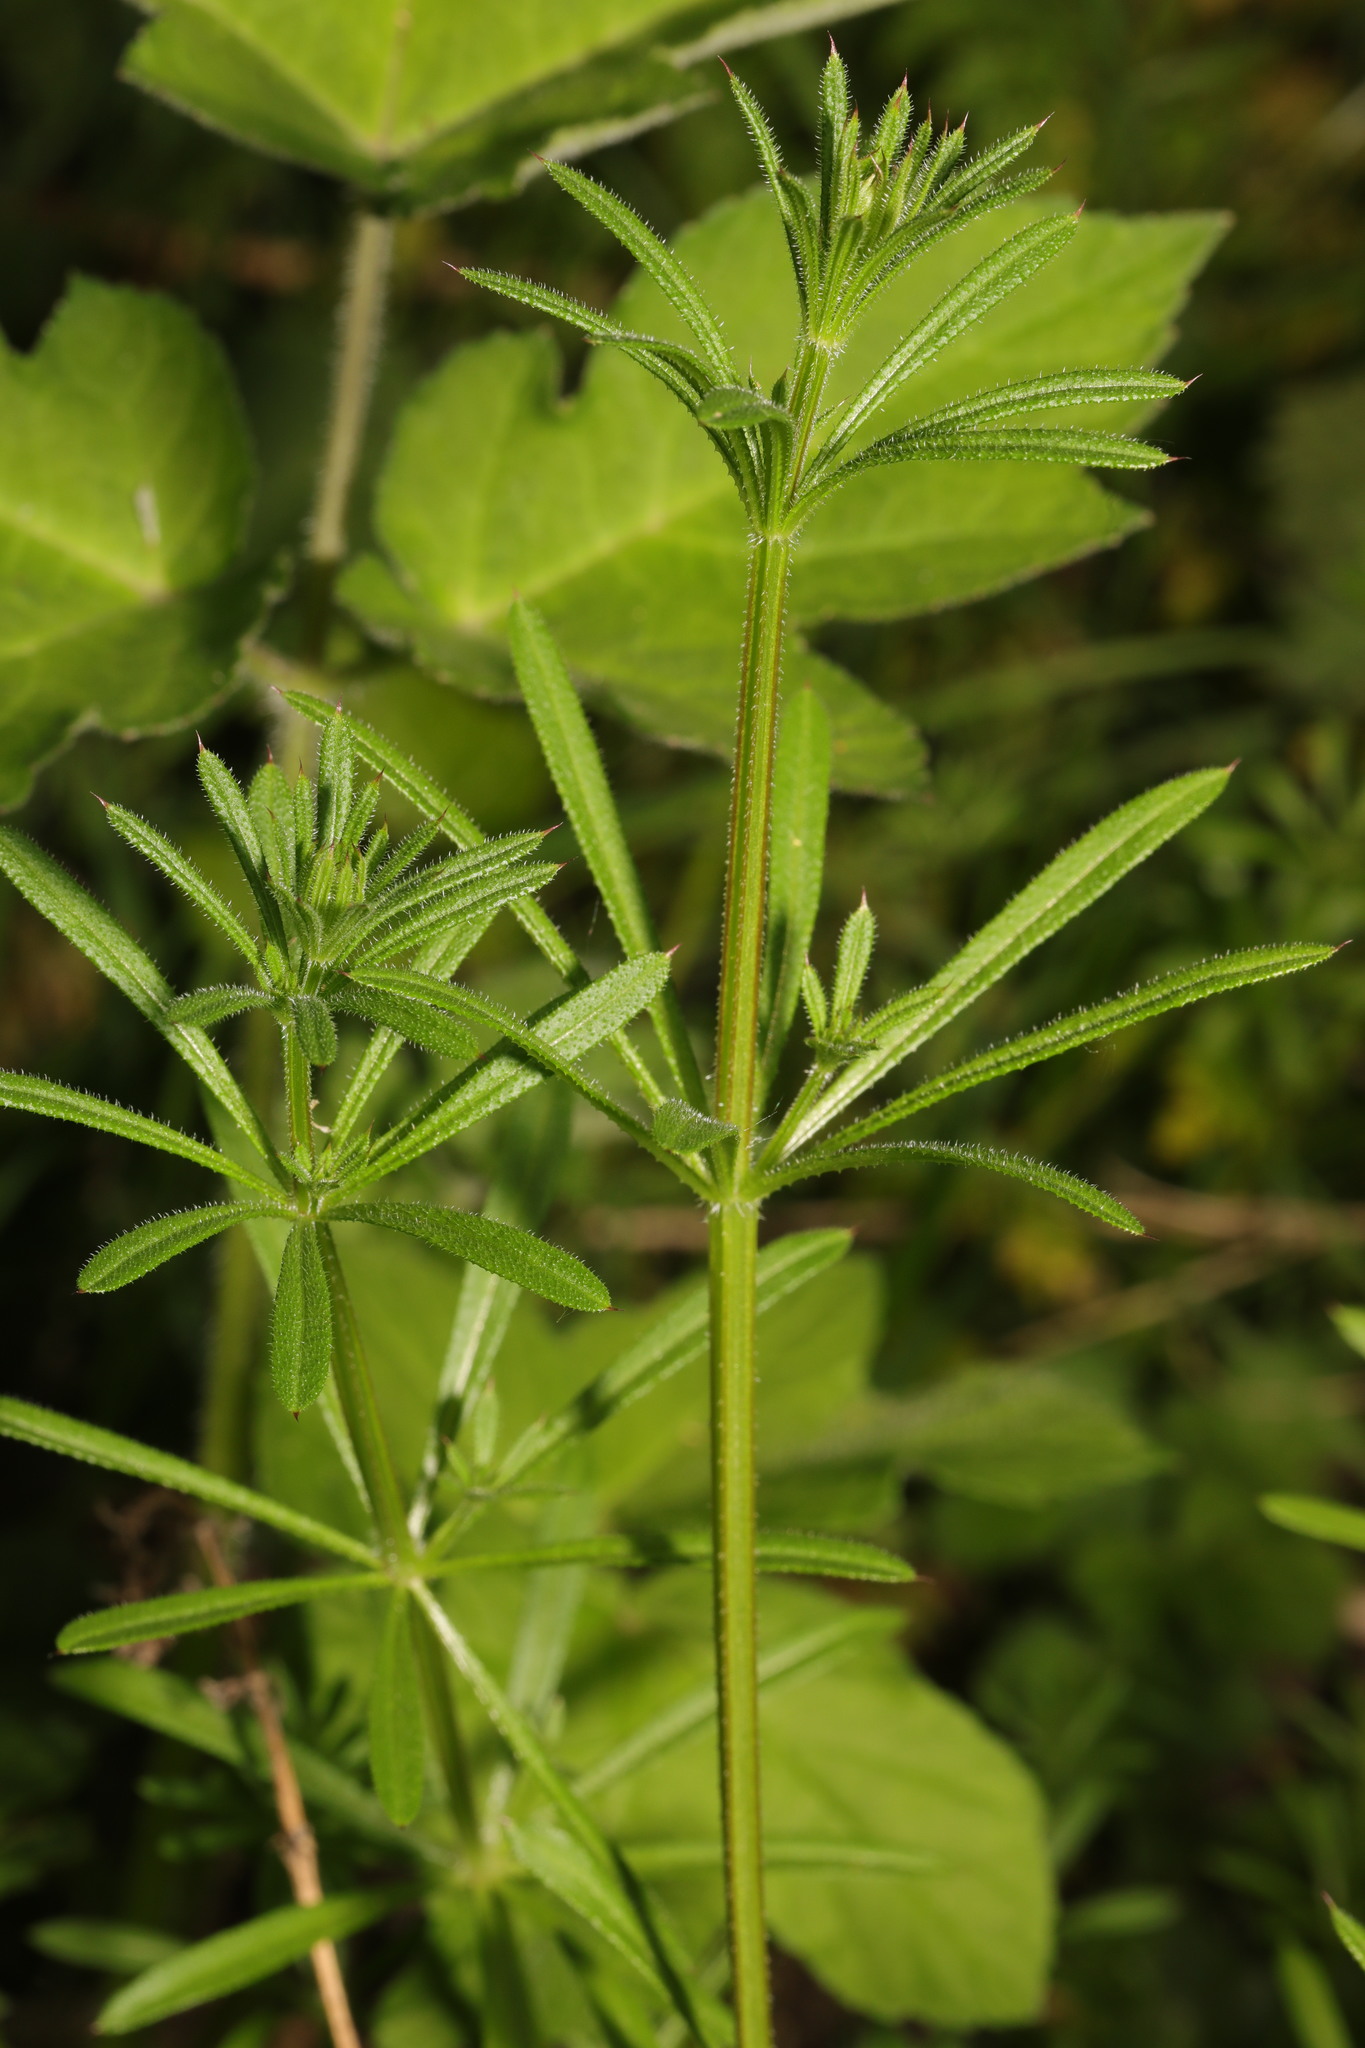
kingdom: Plantae
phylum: Tracheophyta
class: Magnoliopsida
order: Gentianales
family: Rubiaceae
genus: Galium
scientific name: Galium aparine
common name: Cleavers
